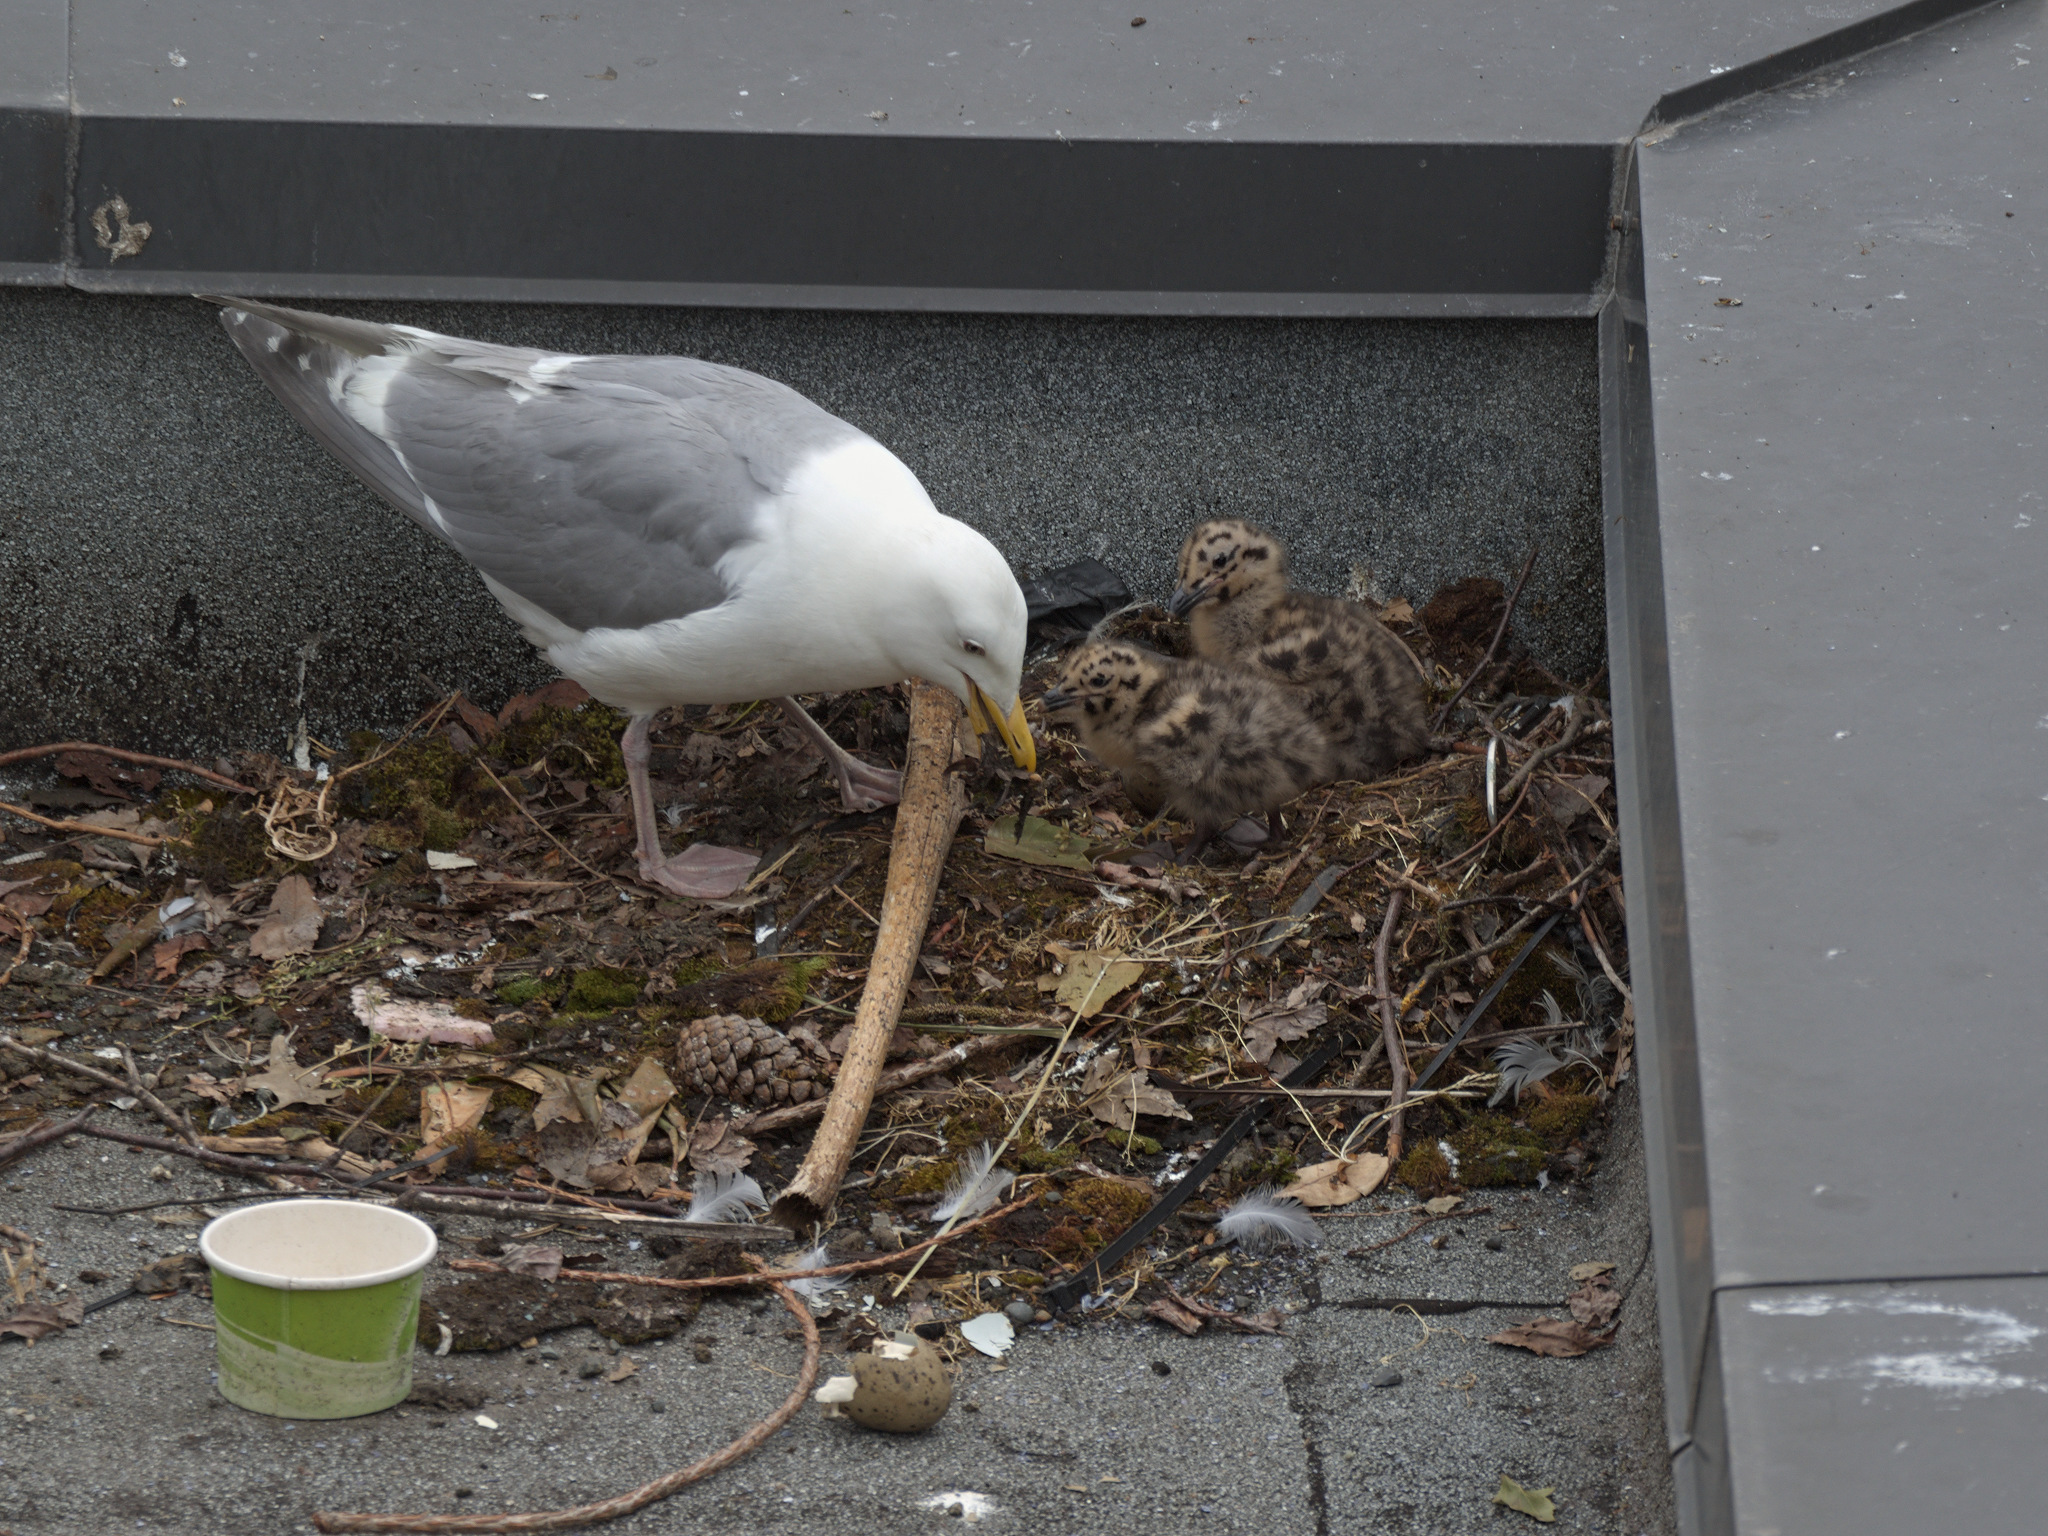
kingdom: Animalia
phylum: Chordata
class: Aves
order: Charadriiformes
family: Laridae
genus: Larus
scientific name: Larus glaucescens
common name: Glaucous-winged gull
